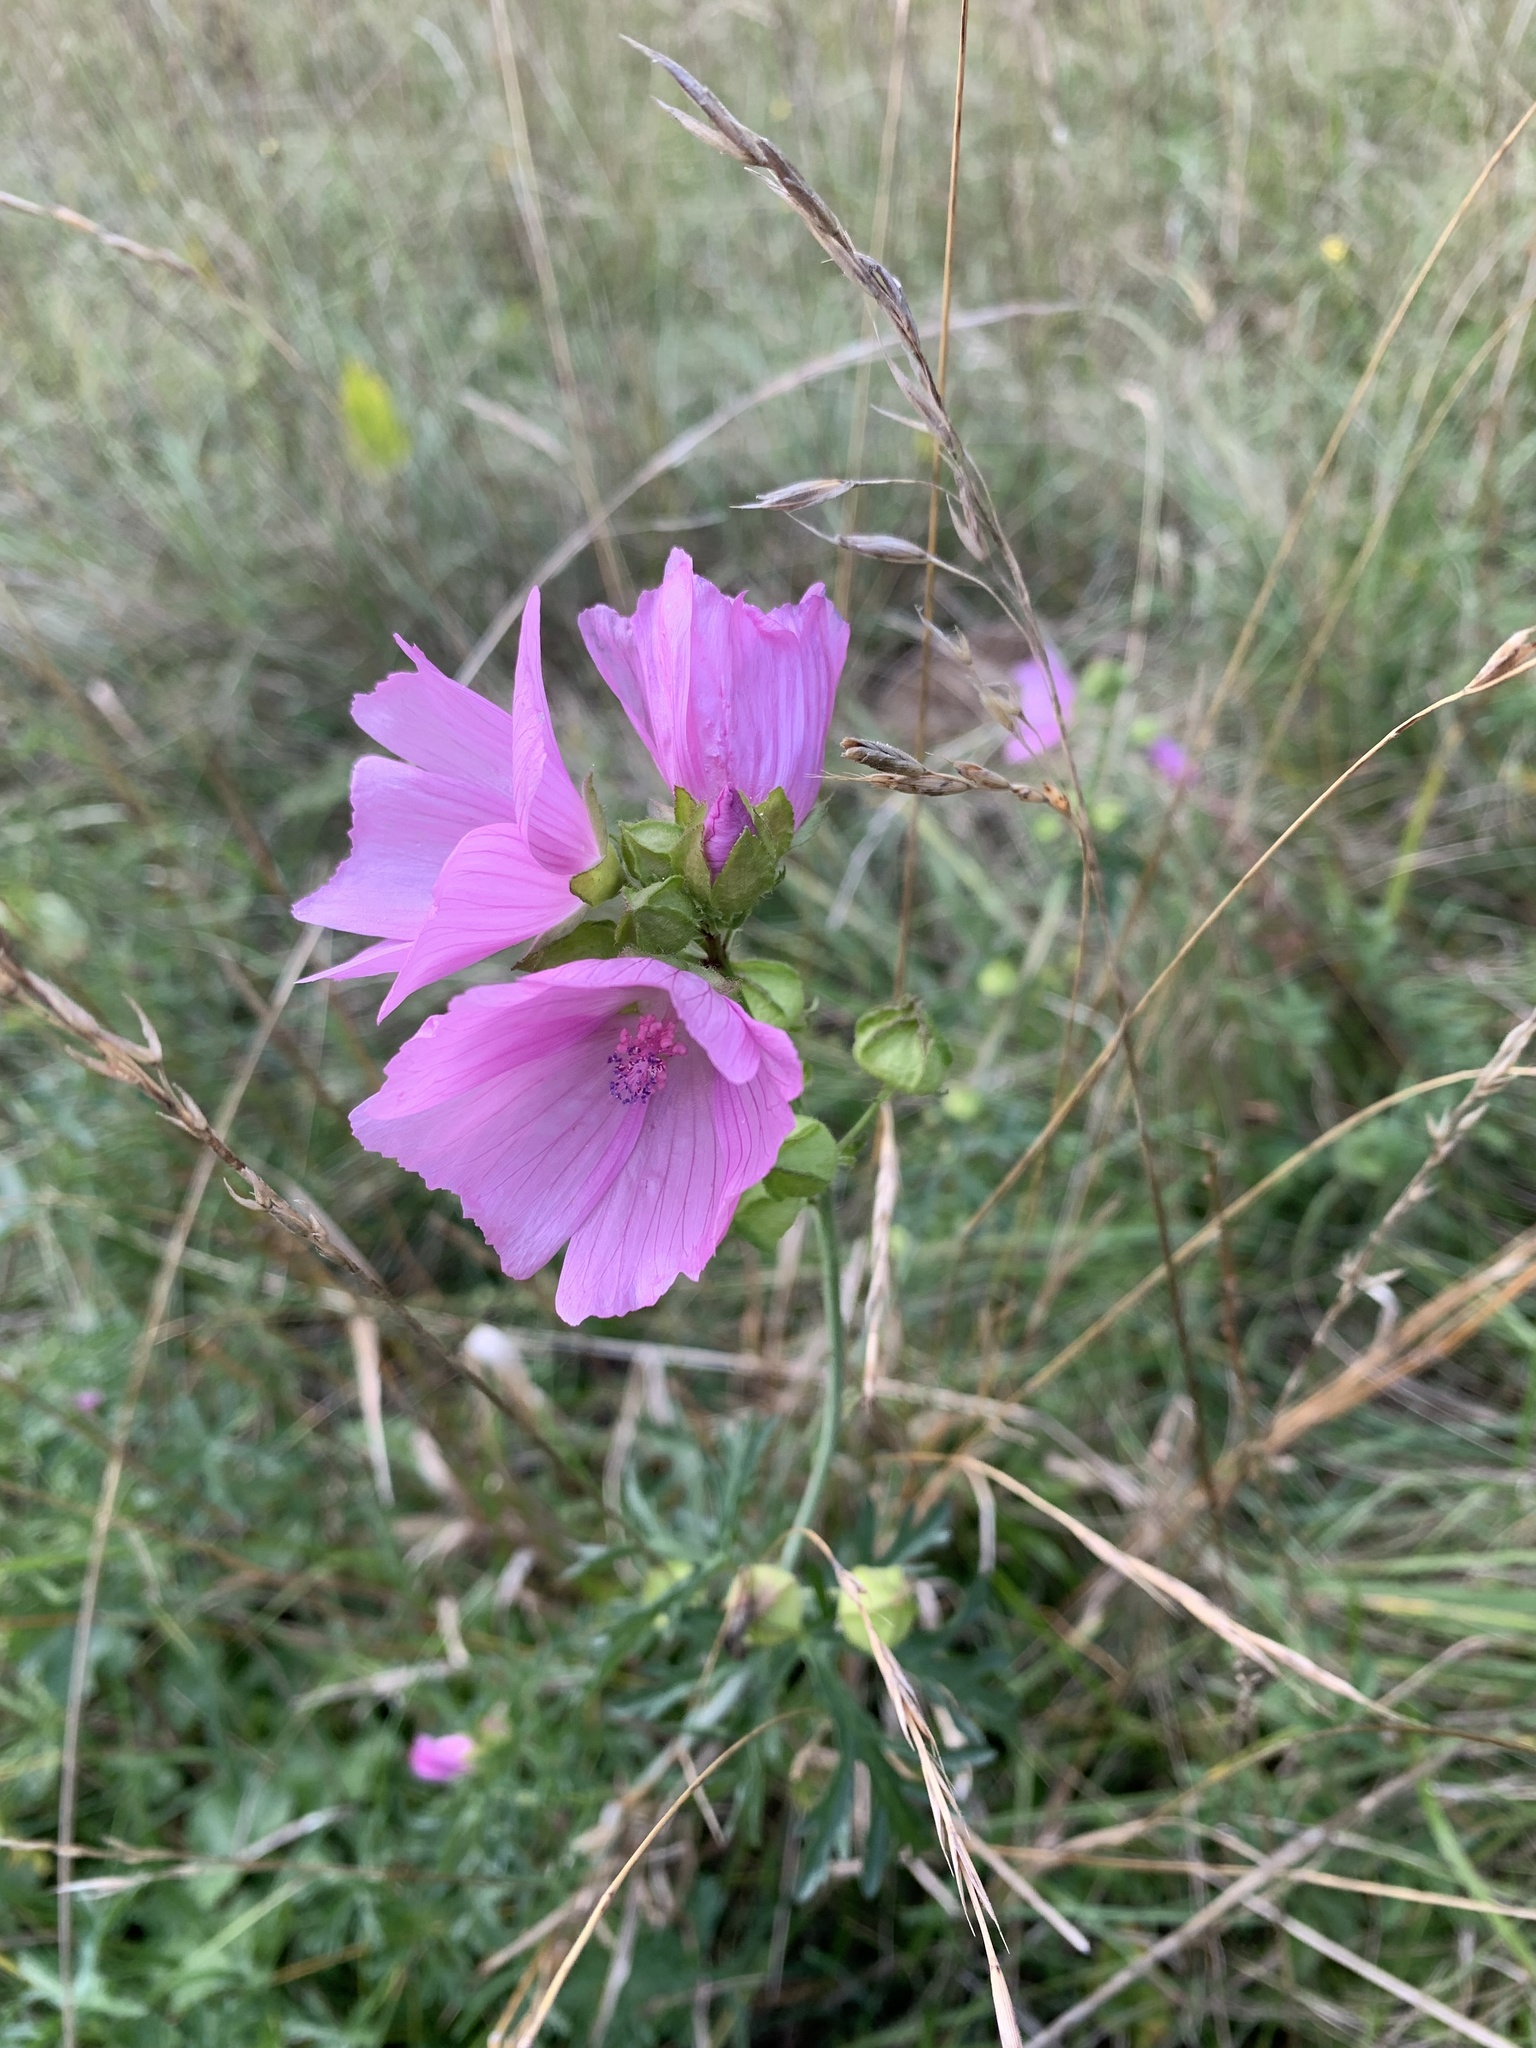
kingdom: Plantae
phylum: Tracheophyta
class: Magnoliopsida
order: Malvales
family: Malvaceae
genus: Malva
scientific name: Malva moschata
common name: Musk mallow
